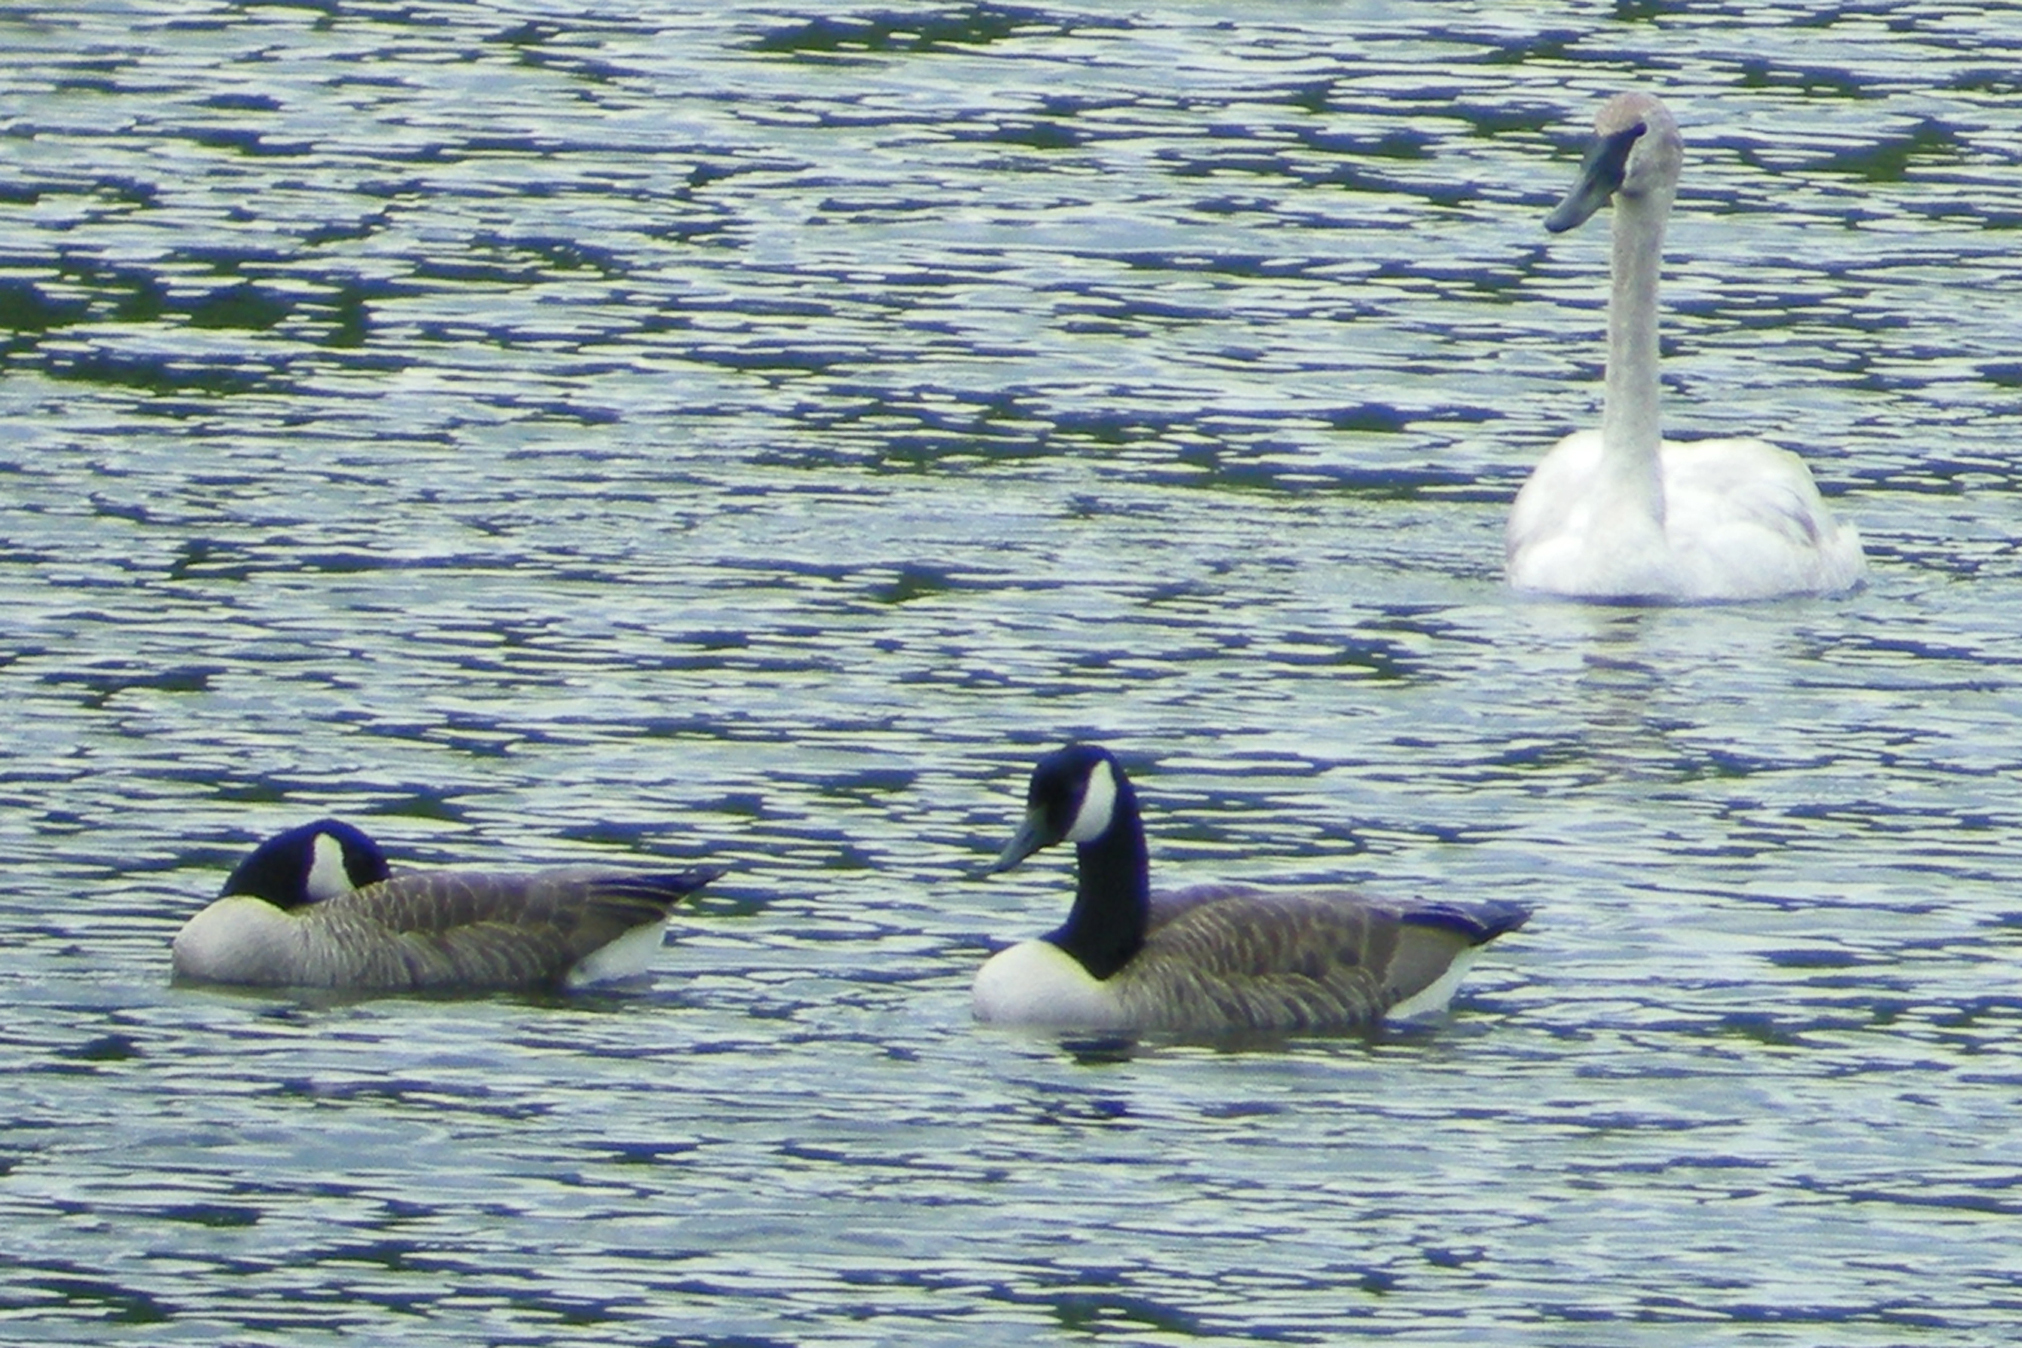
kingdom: Animalia
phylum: Chordata
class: Aves
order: Anseriformes
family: Anatidae
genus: Branta
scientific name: Branta canadensis
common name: Canada goose
